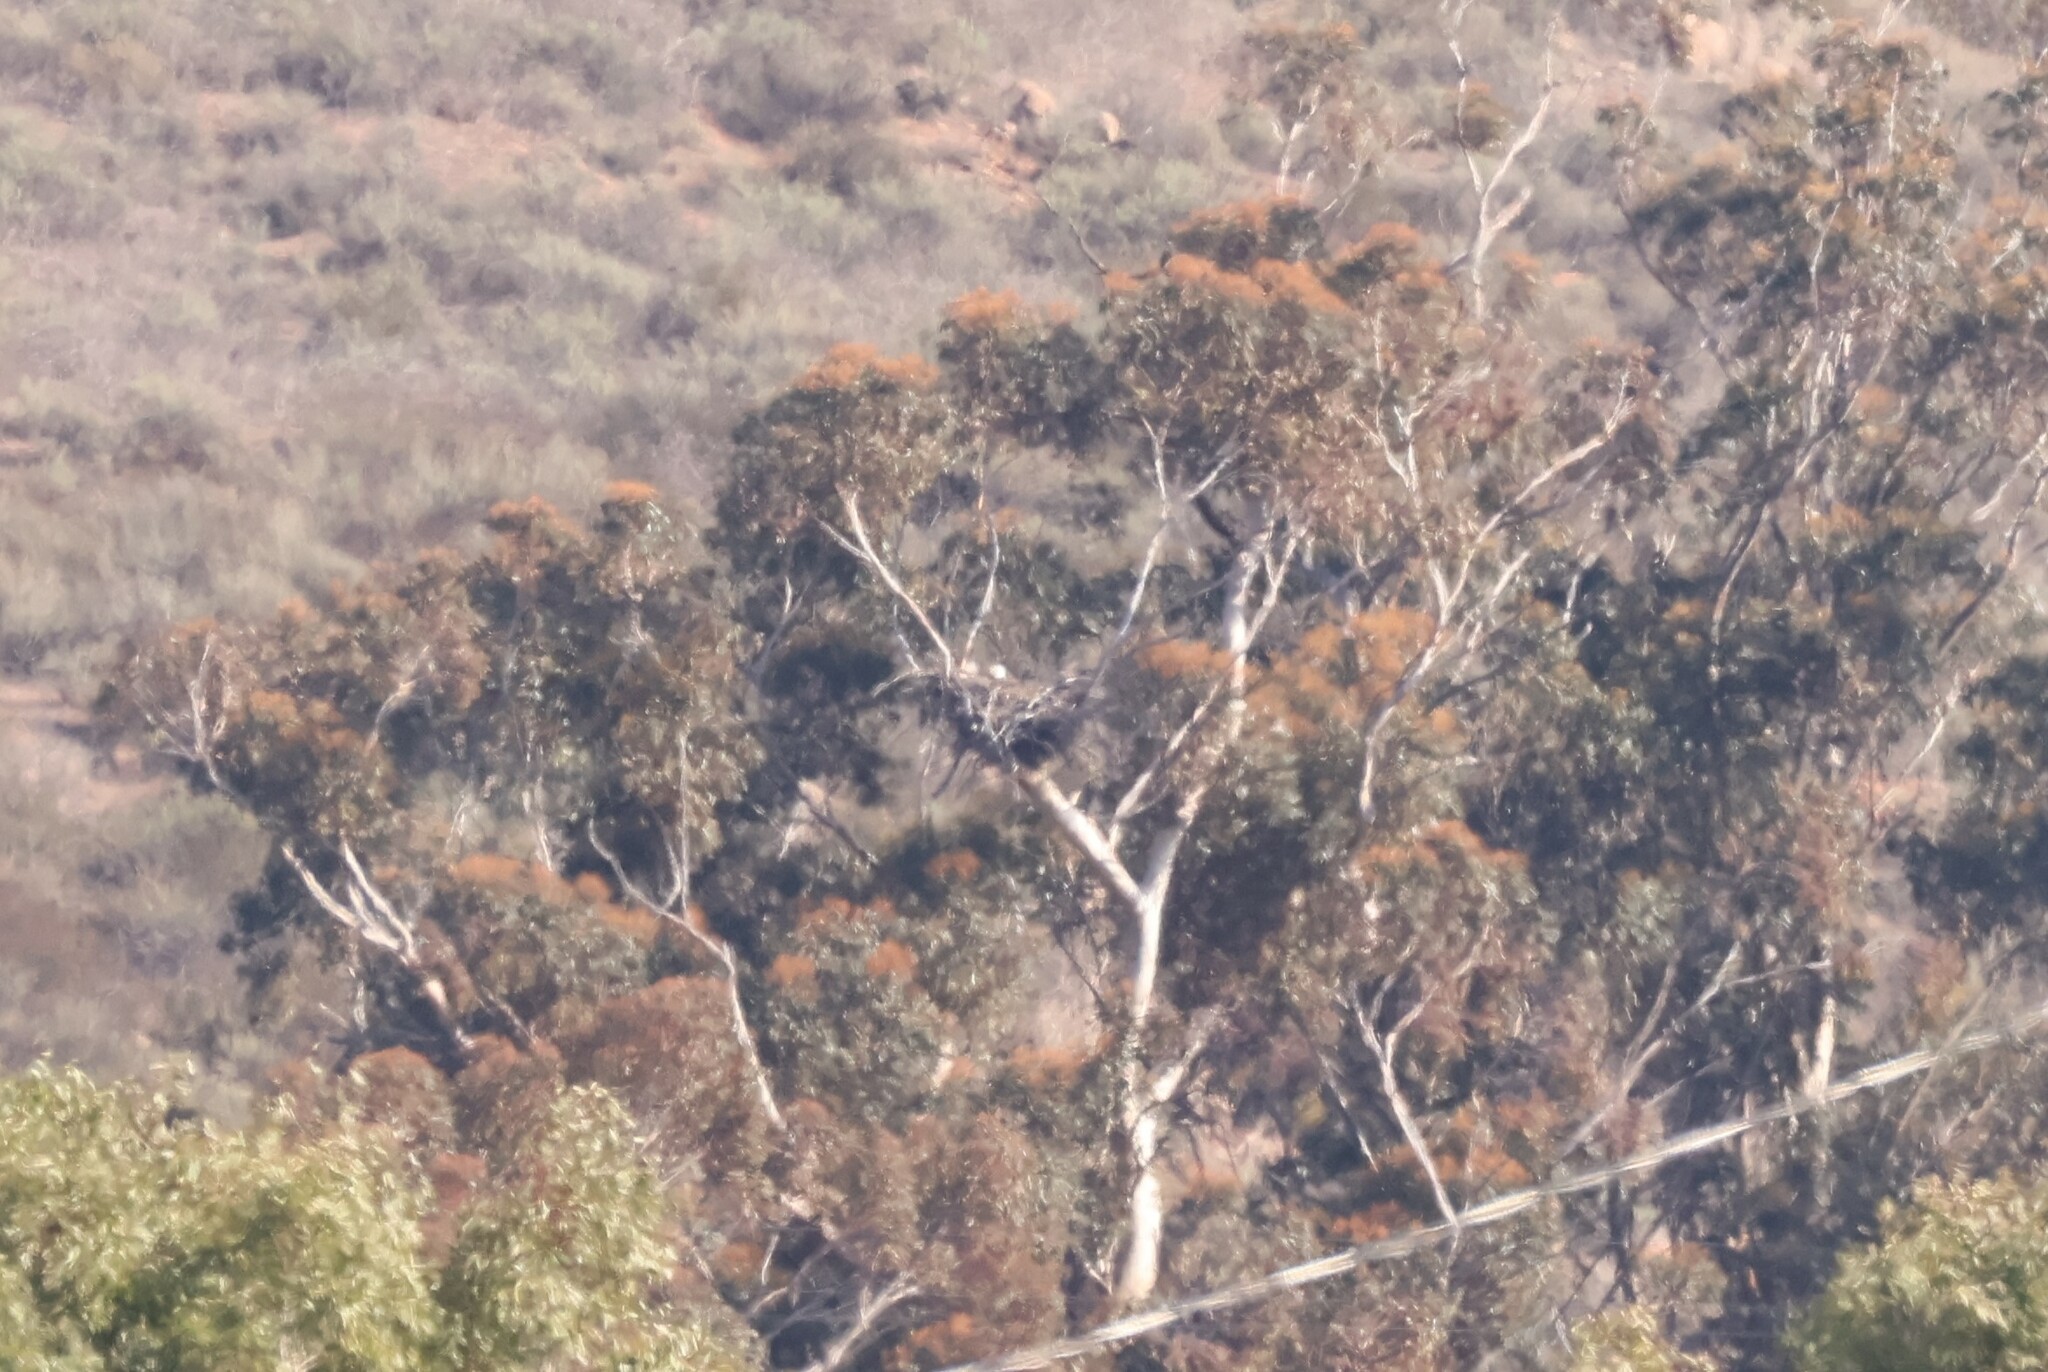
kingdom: Animalia
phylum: Chordata
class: Aves
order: Accipitriformes
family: Accipitridae
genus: Haliaeetus
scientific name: Haliaeetus leucocephalus
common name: Bald eagle
